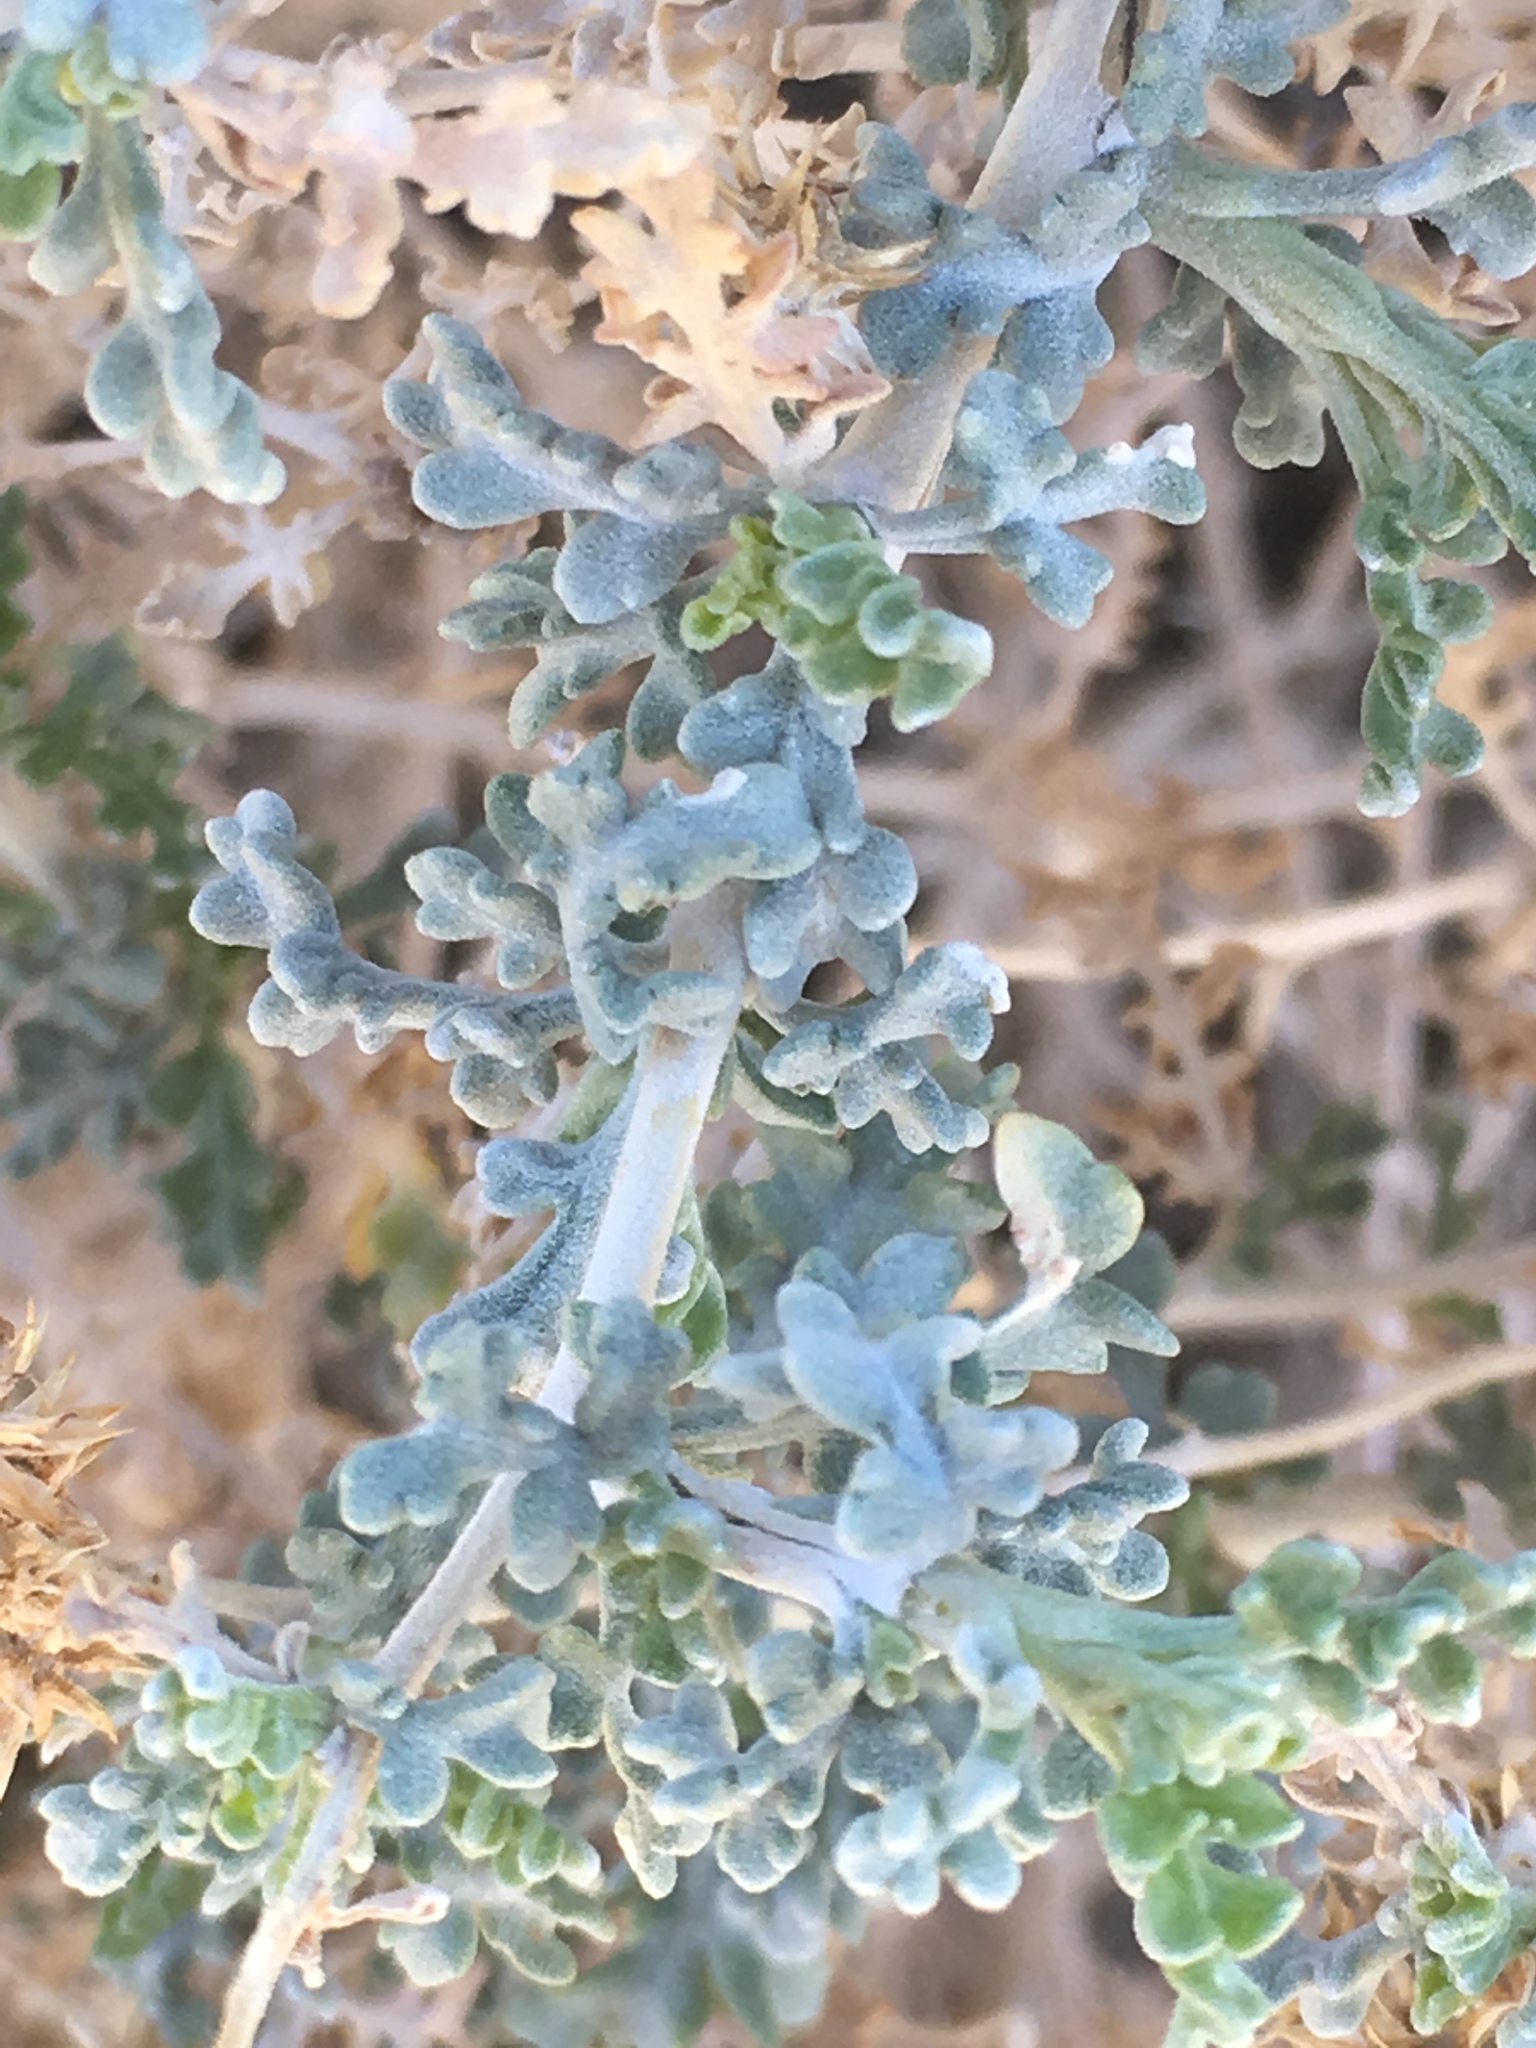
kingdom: Plantae
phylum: Tracheophyta
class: Magnoliopsida
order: Asterales
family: Asteraceae
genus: Ambrosia
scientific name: Ambrosia dumosa
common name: Bur-sage
